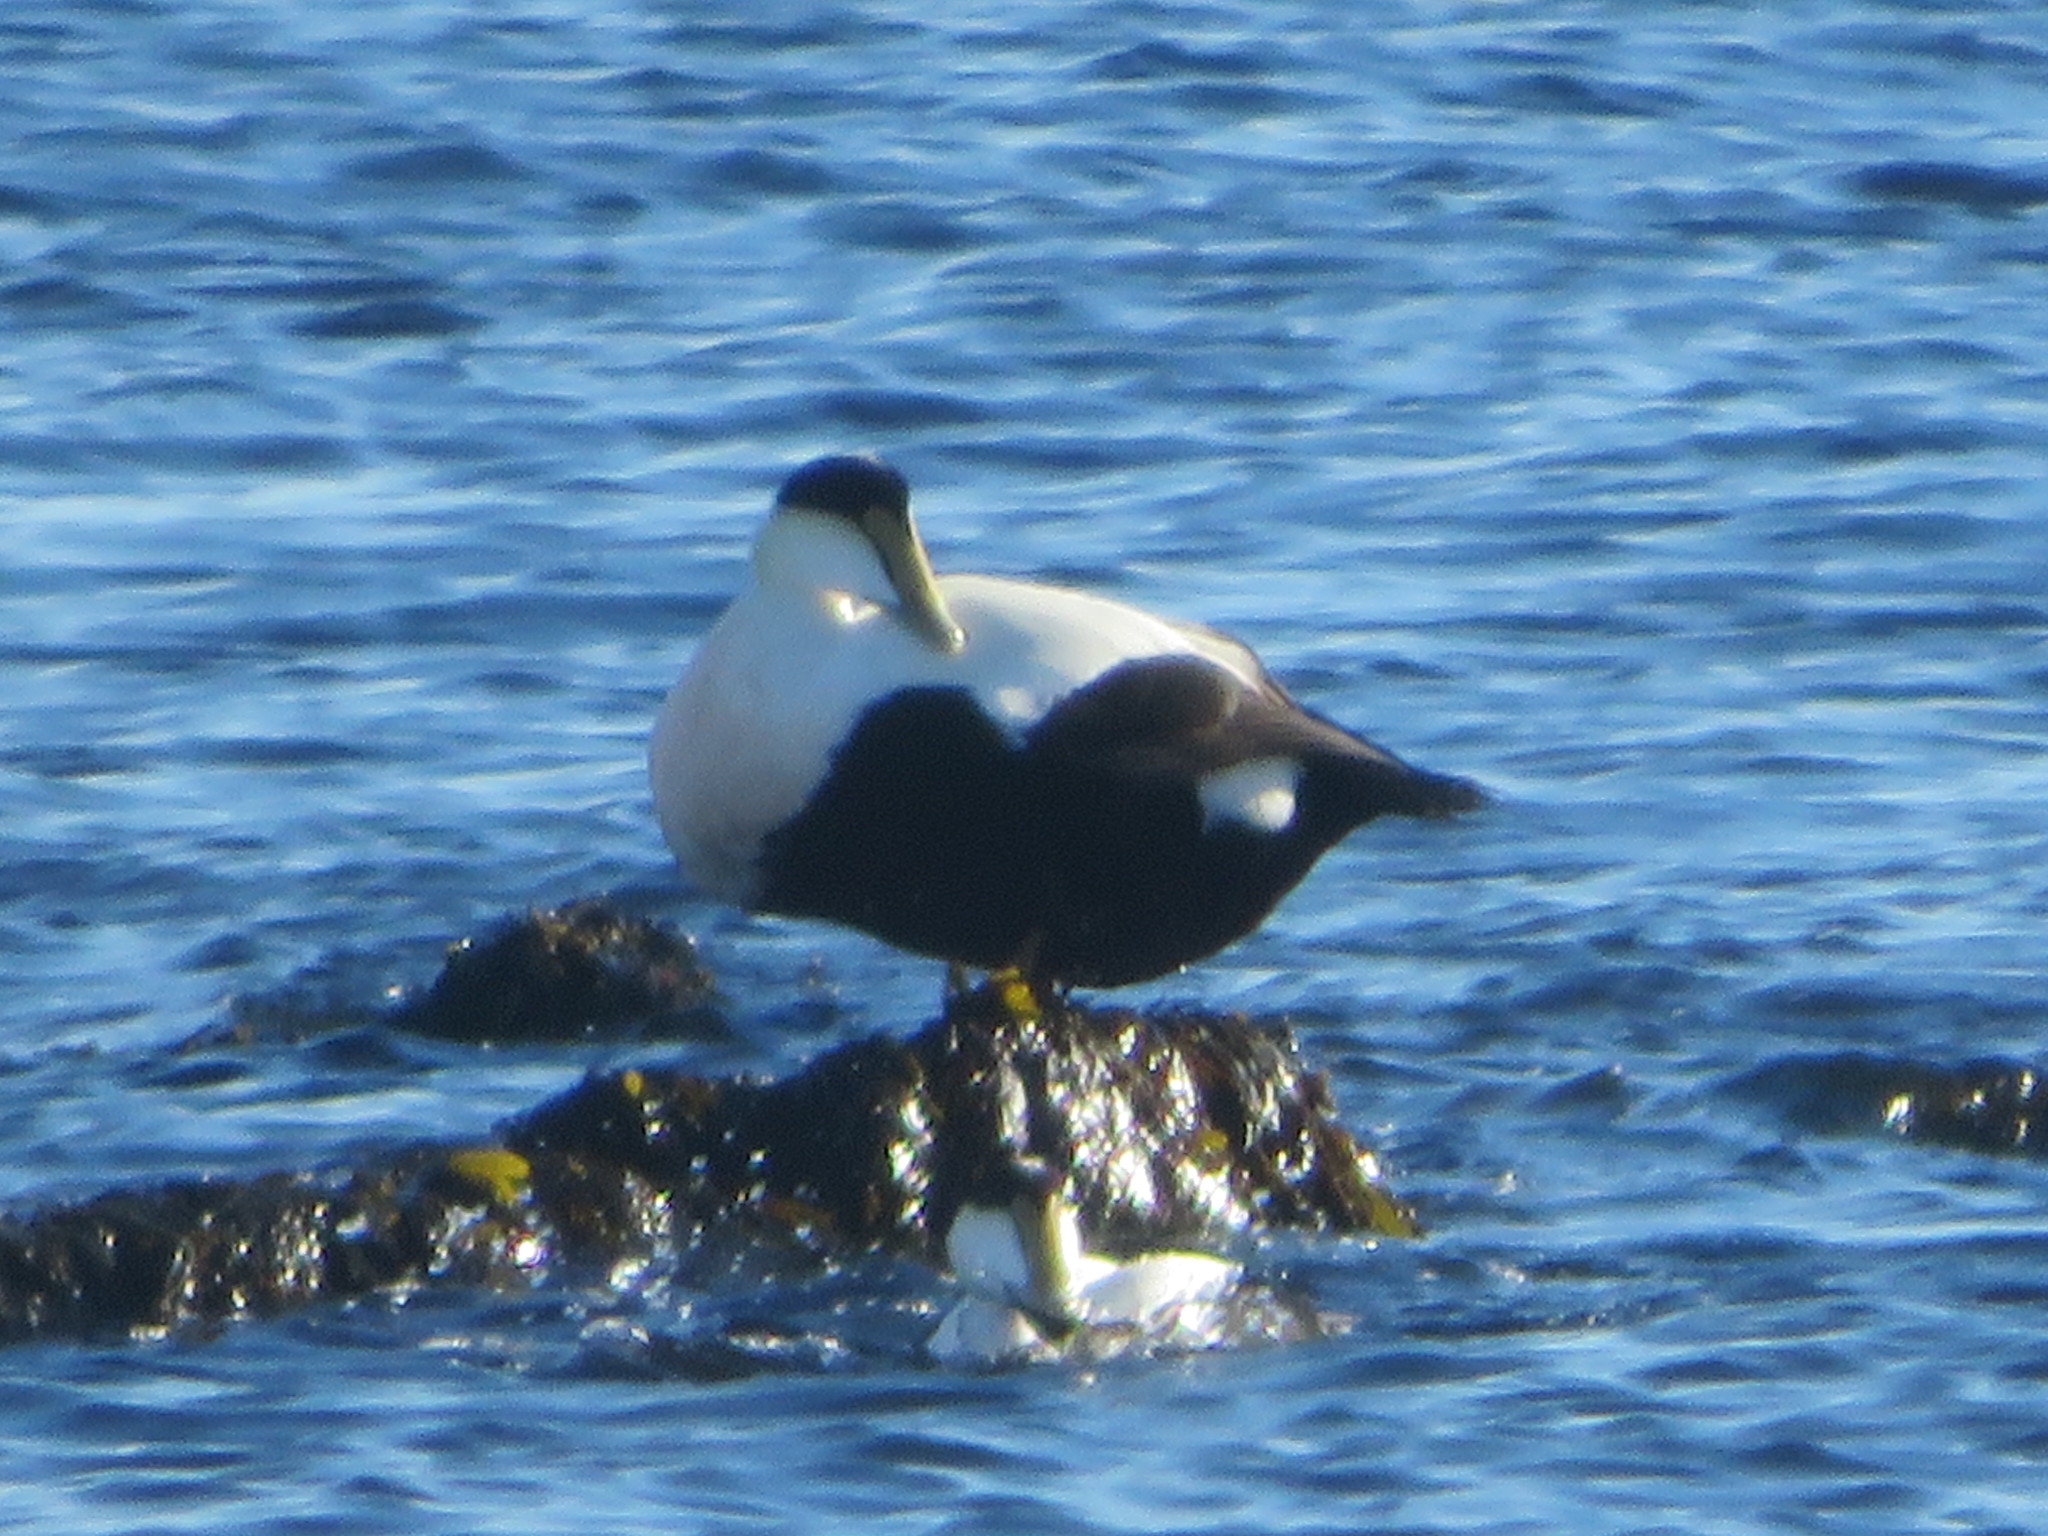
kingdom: Animalia
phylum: Chordata
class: Aves
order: Anseriformes
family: Anatidae
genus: Somateria
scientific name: Somateria mollissima
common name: Common eider
